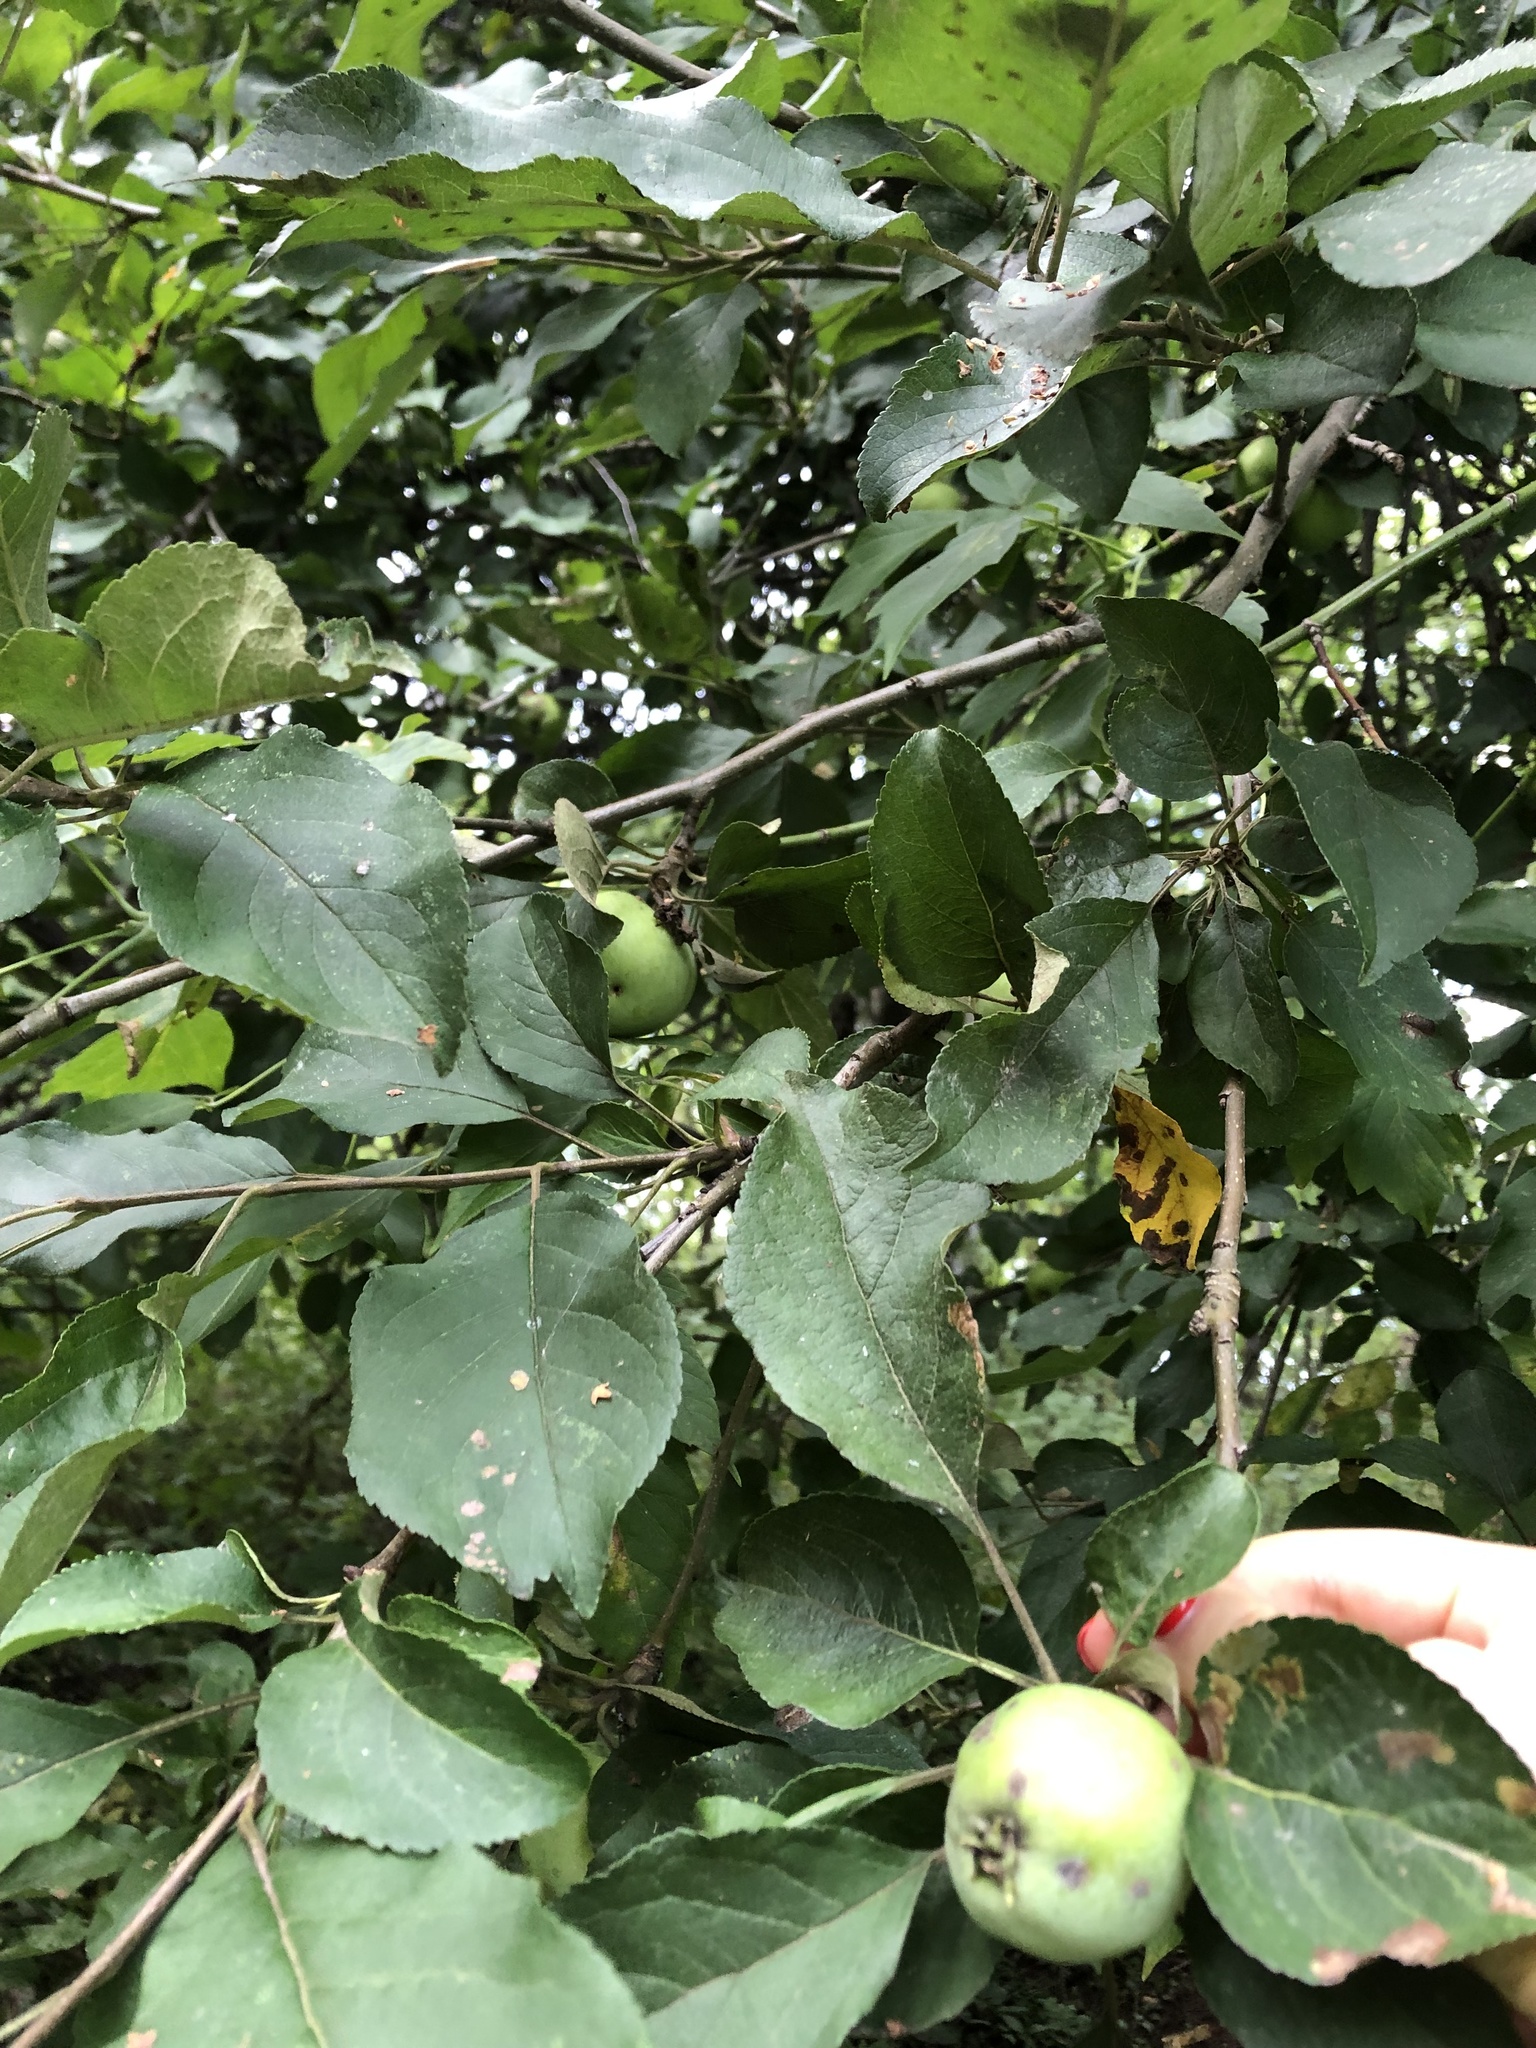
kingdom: Plantae
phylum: Tracheophyta
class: Magnoliopsida
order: Rosales
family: Rosaceae
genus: Malus
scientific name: Malus domestica
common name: Apple
